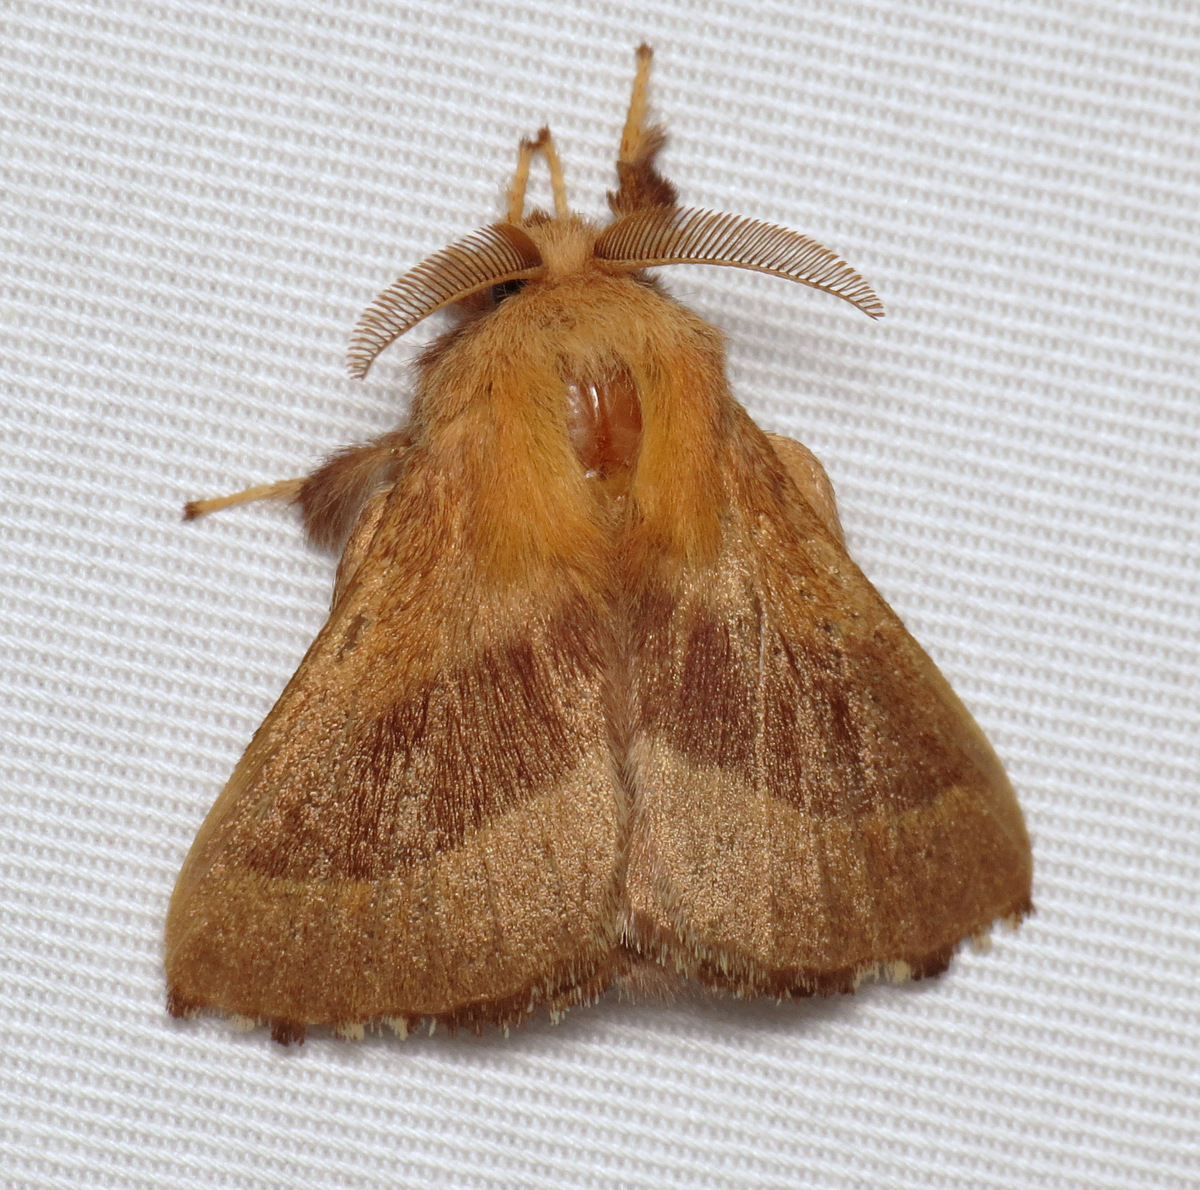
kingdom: Animalia
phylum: Arthropoda
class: Insecta
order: Lepidoptera
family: Lasiocampidae
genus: Malacosoma
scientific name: Malacosoma disstria
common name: Forest tent caterpillar
